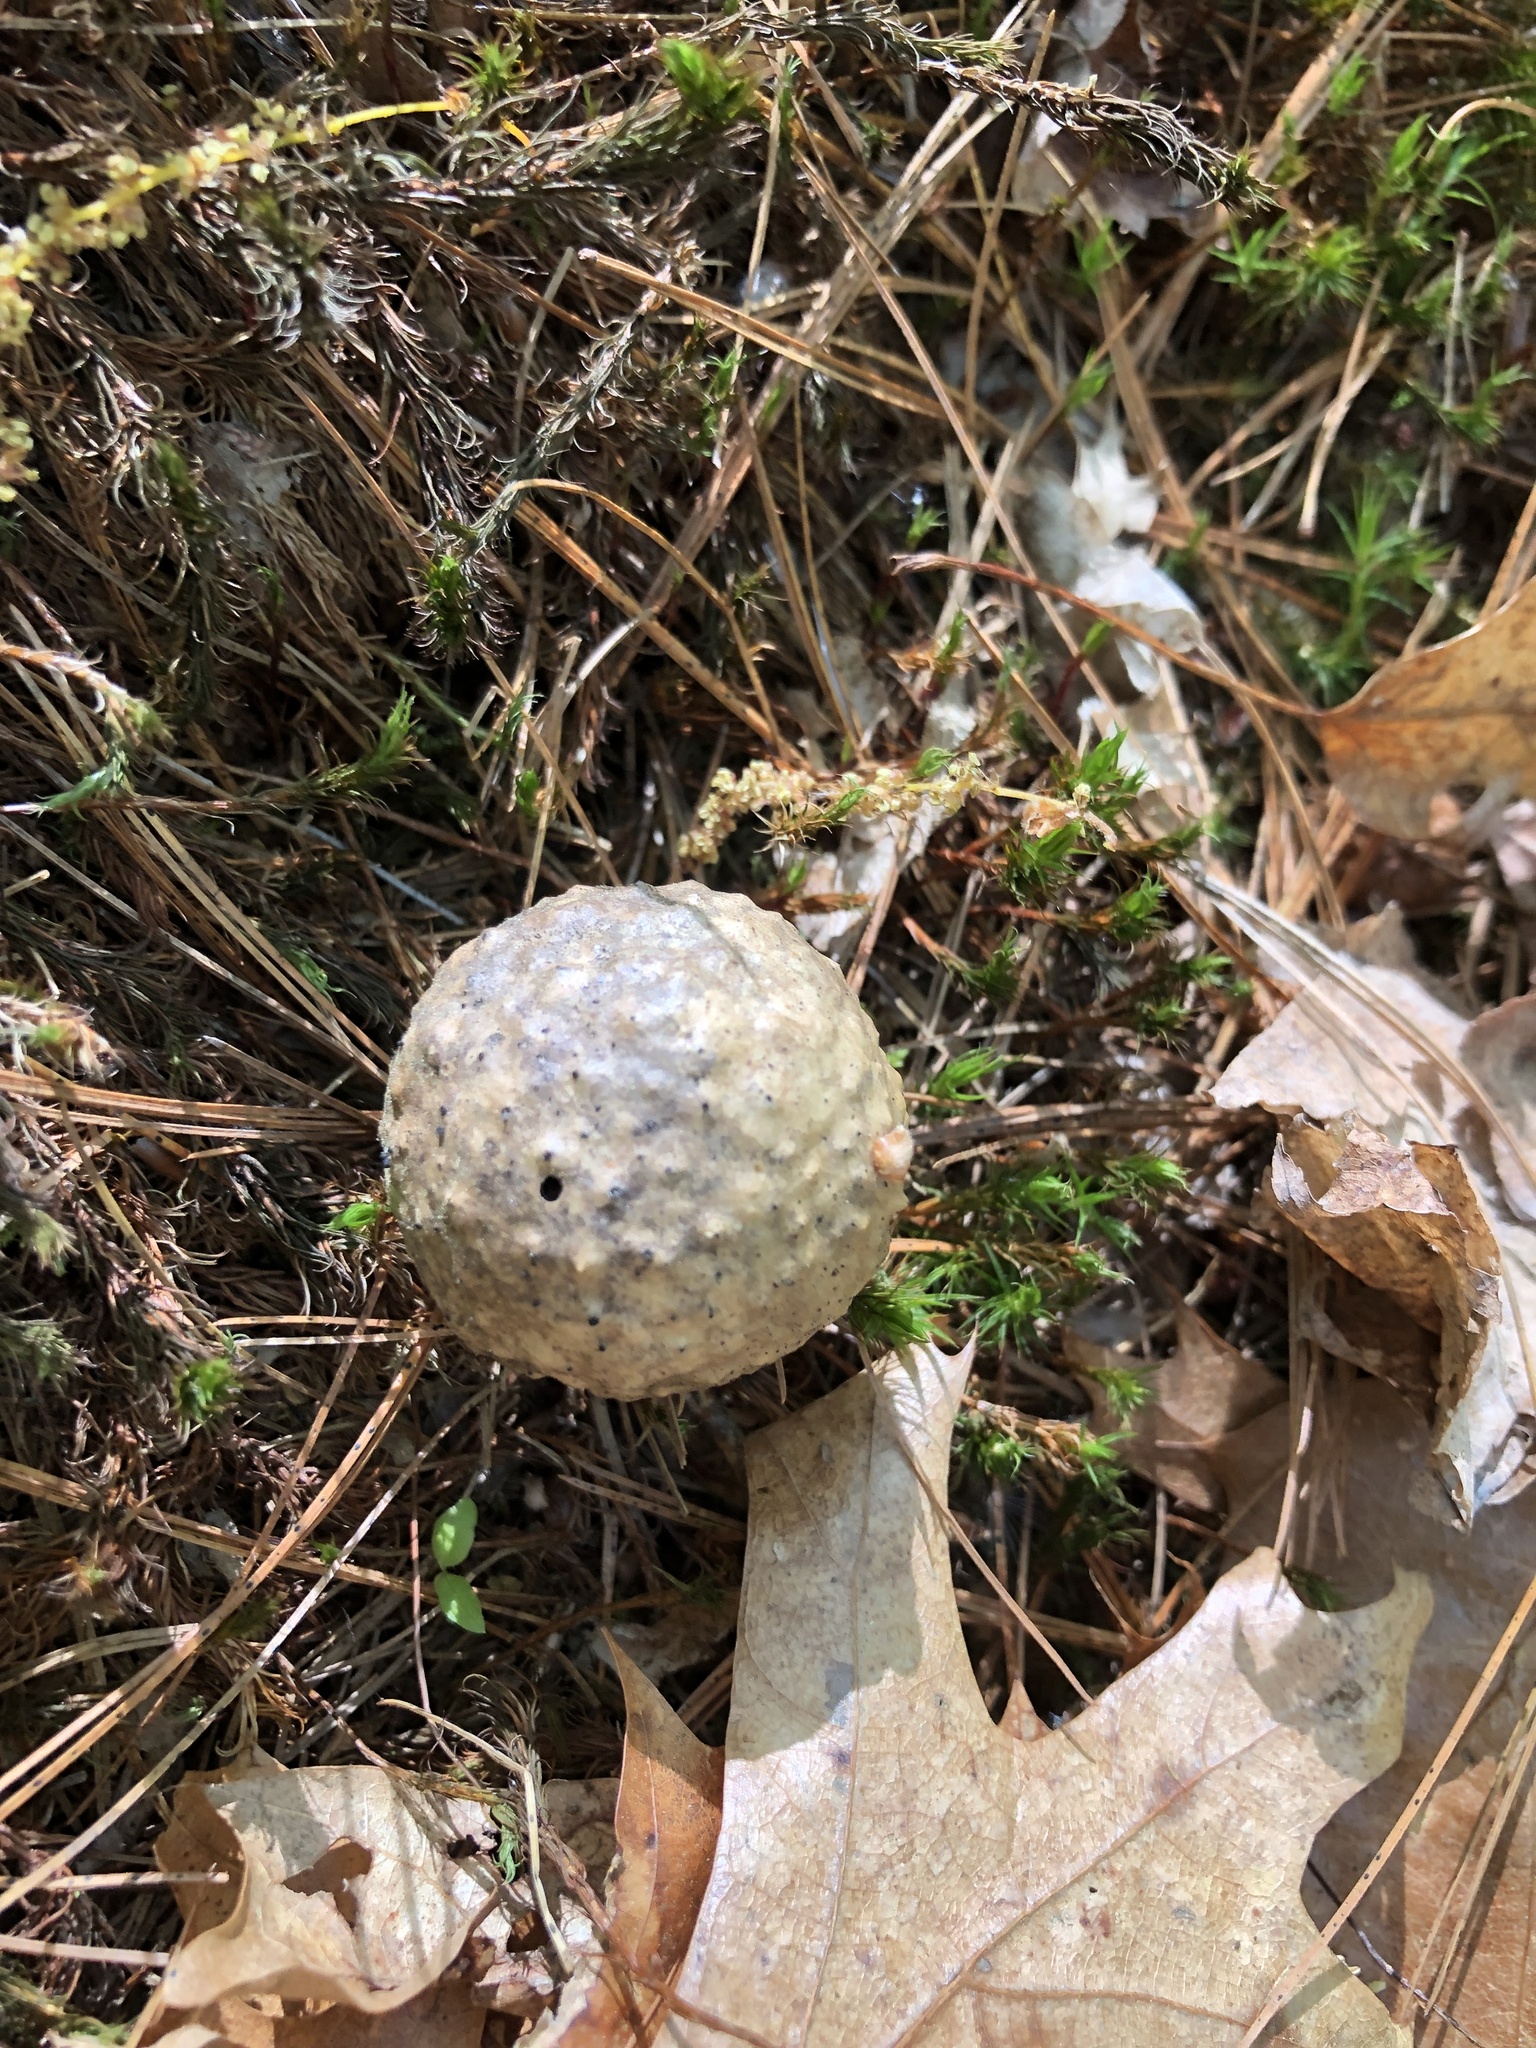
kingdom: Animalia
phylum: Arthropoda
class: Insecta
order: Hymenoptera
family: Cynipidae
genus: Amphibolips
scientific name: Amphibolips
